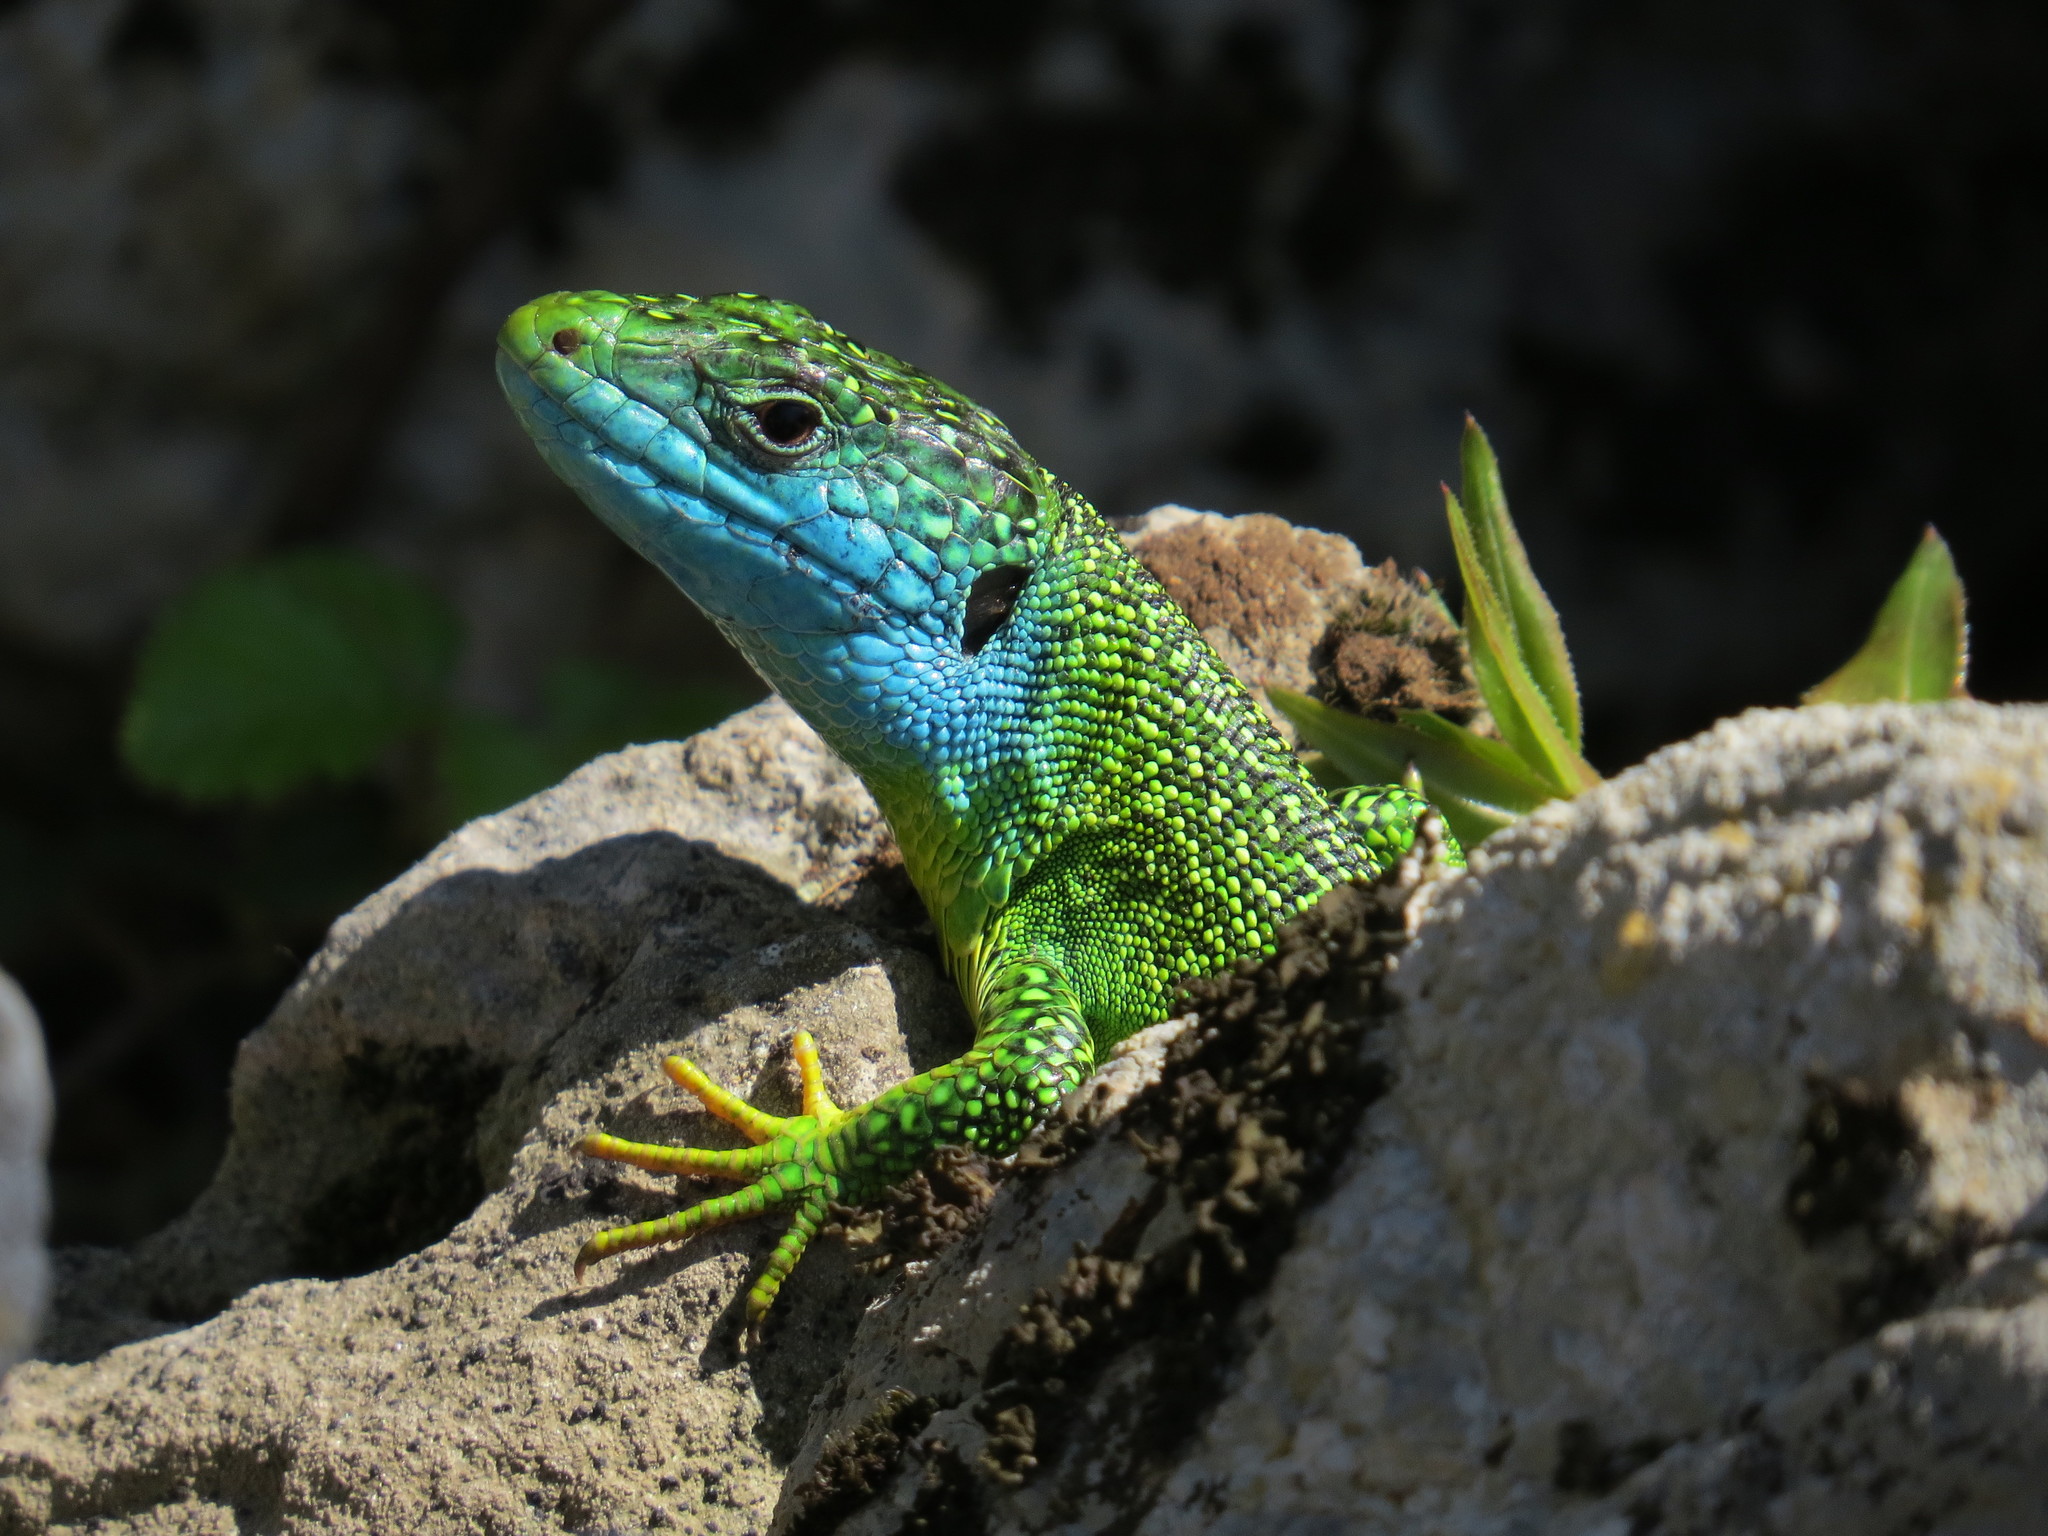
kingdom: Animalia
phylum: Chordata
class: Squamata
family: Lacertidae
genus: Lacerta
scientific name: Lacerta bilineata
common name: Western green lizard
